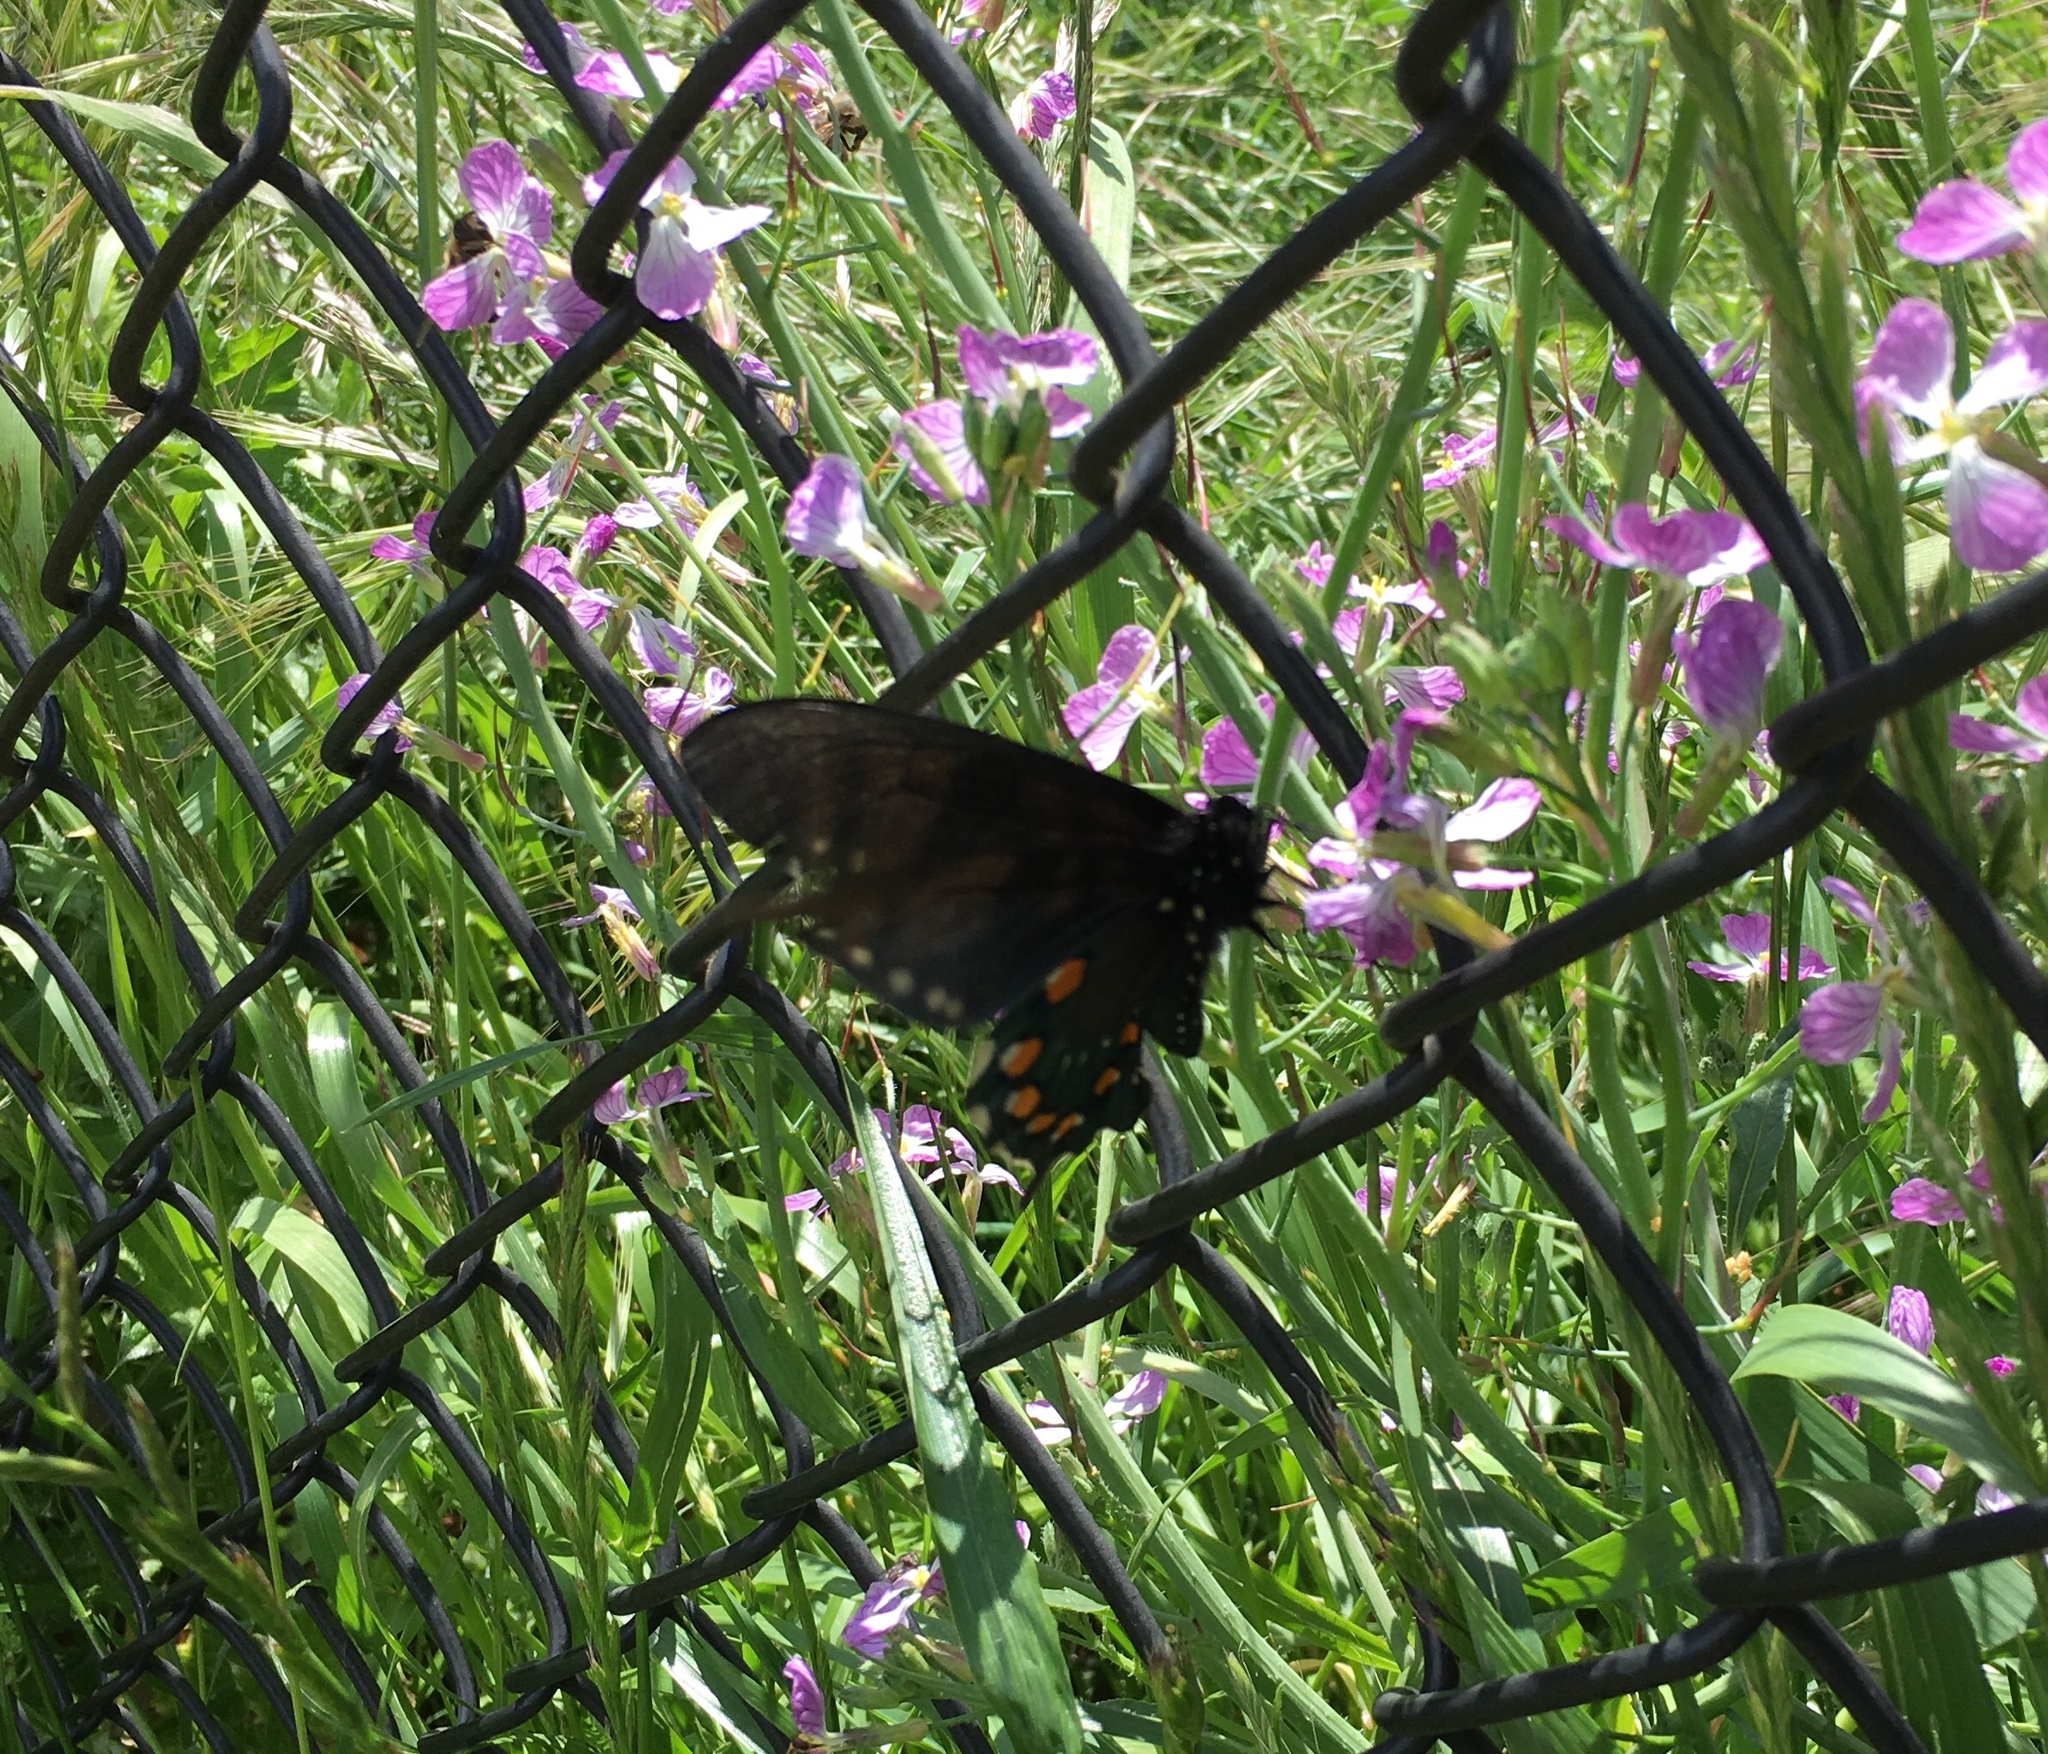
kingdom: Animalia
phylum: Arthropoda
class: Insecta
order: Lepidoptera
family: Papilionidae
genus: Battus
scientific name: Battus philenor
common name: Pipevine swallowtail
